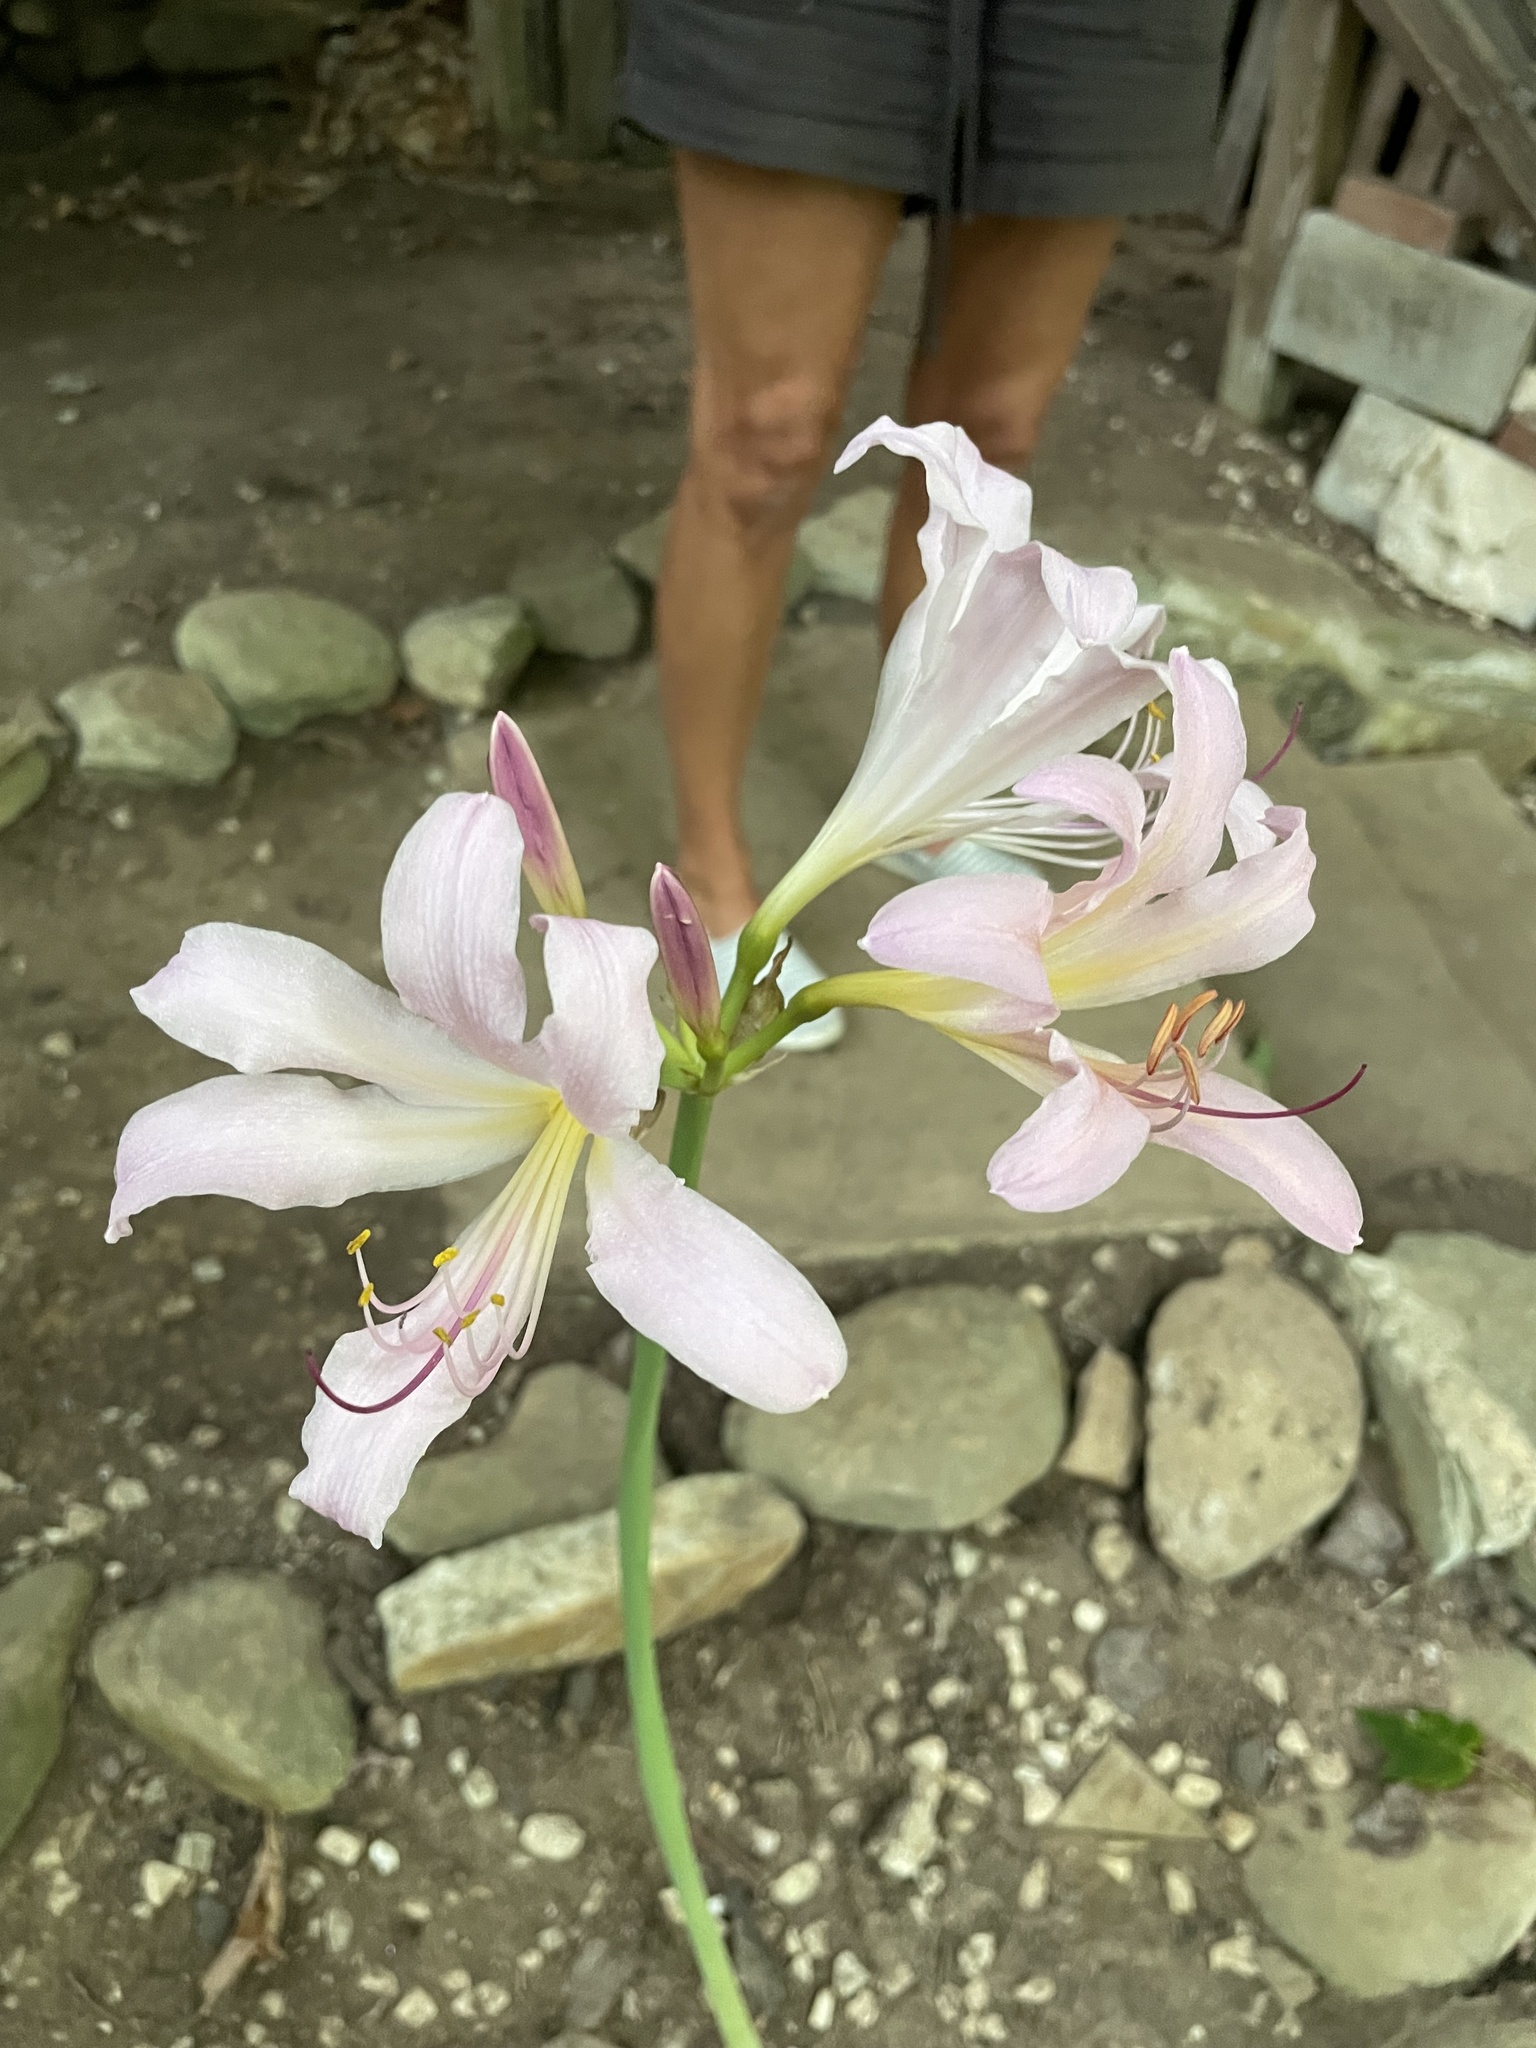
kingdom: Plantae
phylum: Tracheophyta
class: Liliopsida
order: Asparagales
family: Amaryllidaceae
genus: Lycoris
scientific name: Lycoris squamigera
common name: Magic-lily
